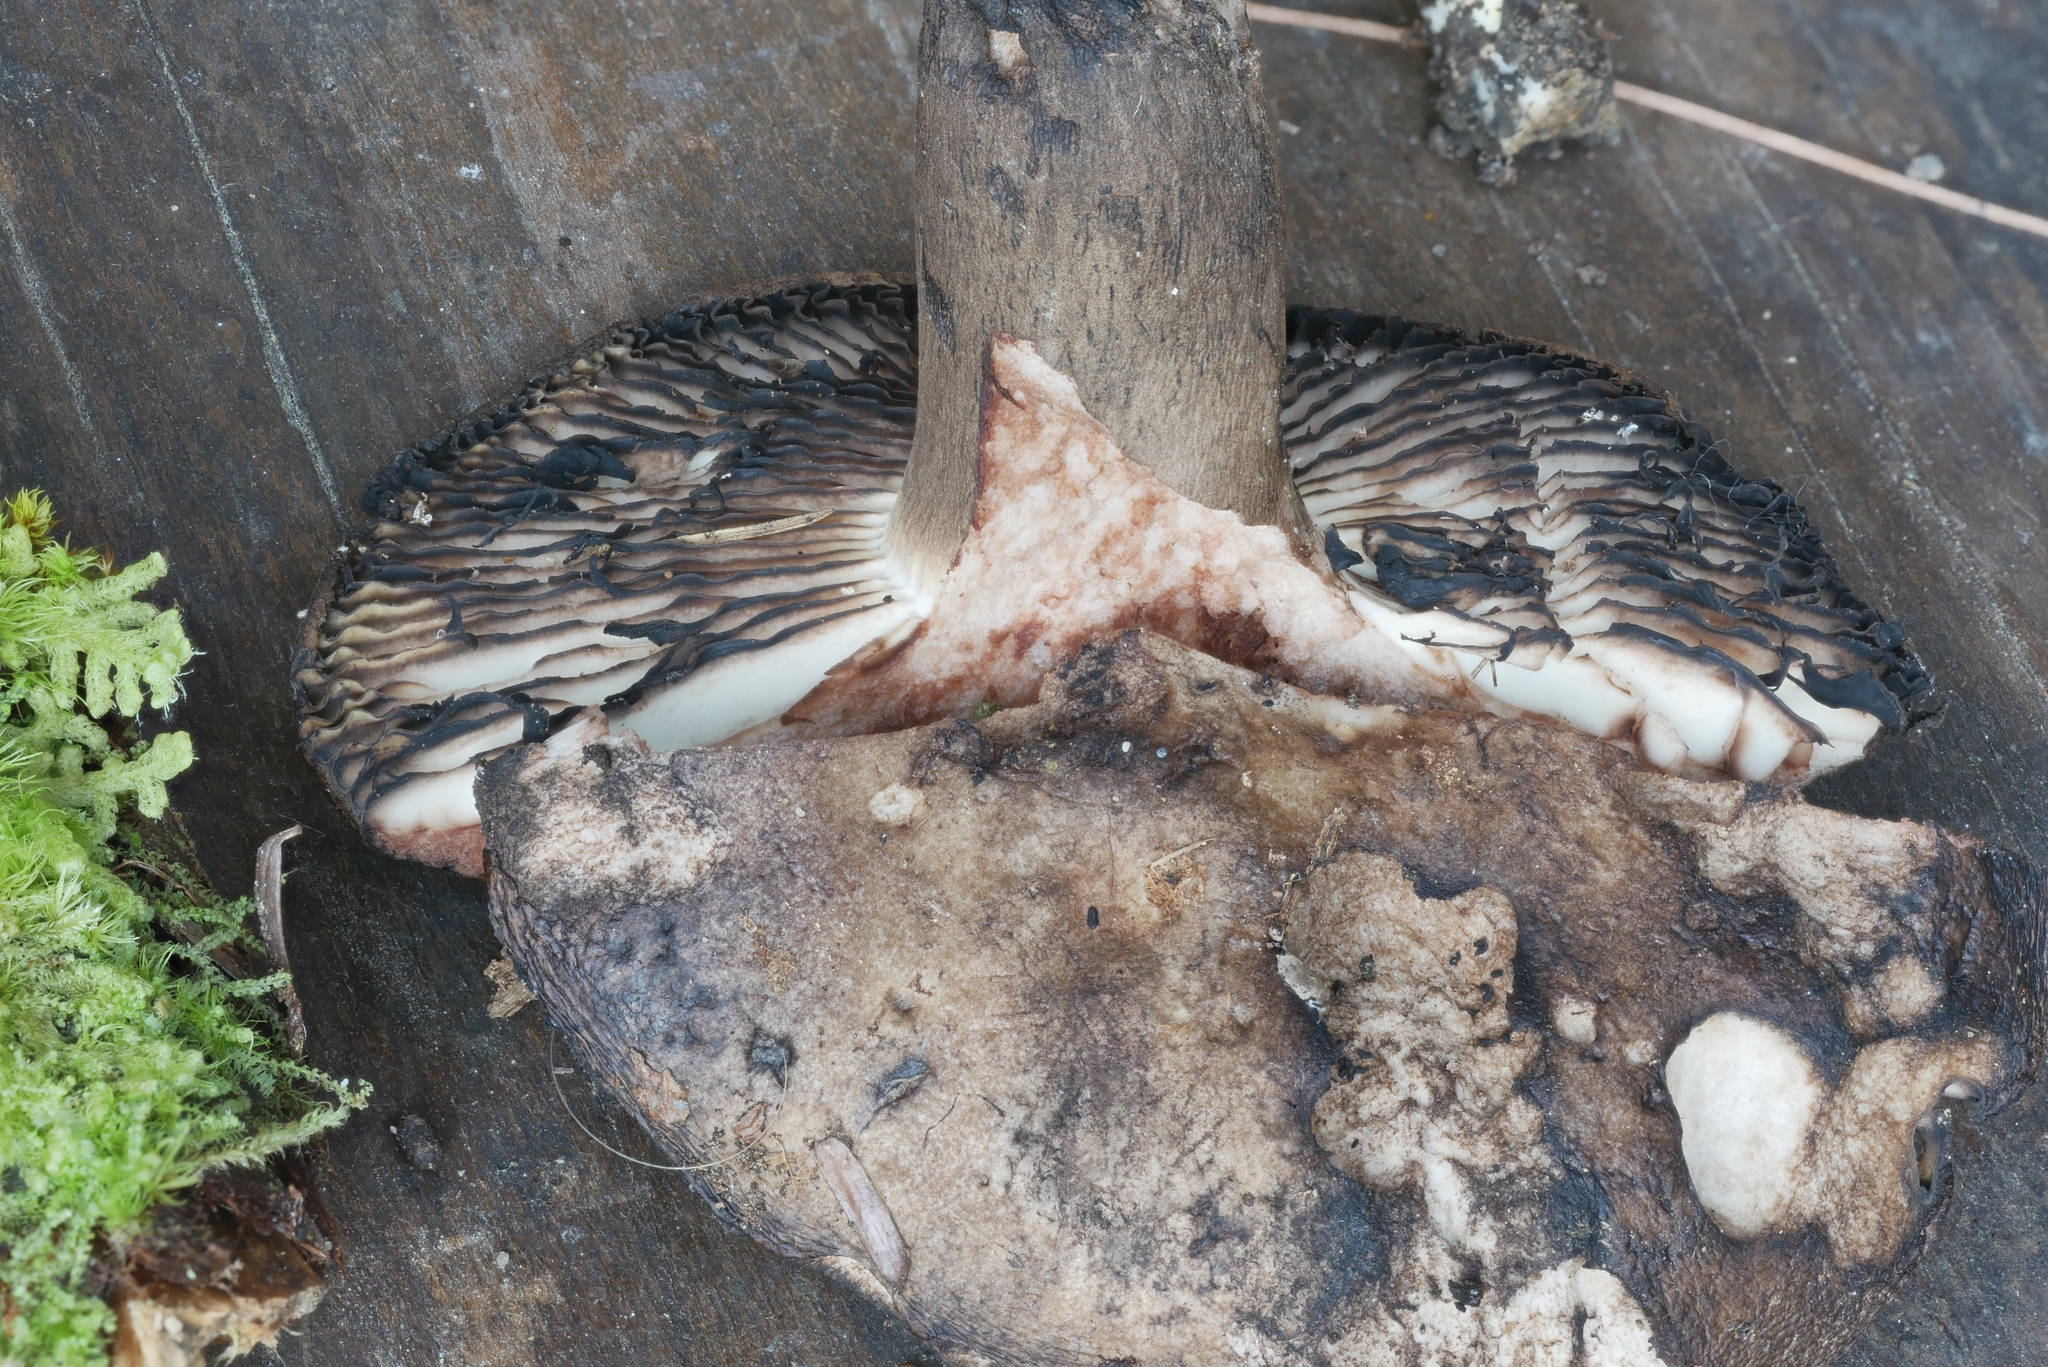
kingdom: Fungi
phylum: Basidiomycota
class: Agaricomycetes
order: Russulales
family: Russulaceae
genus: Russula
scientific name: Russula dissimulans
